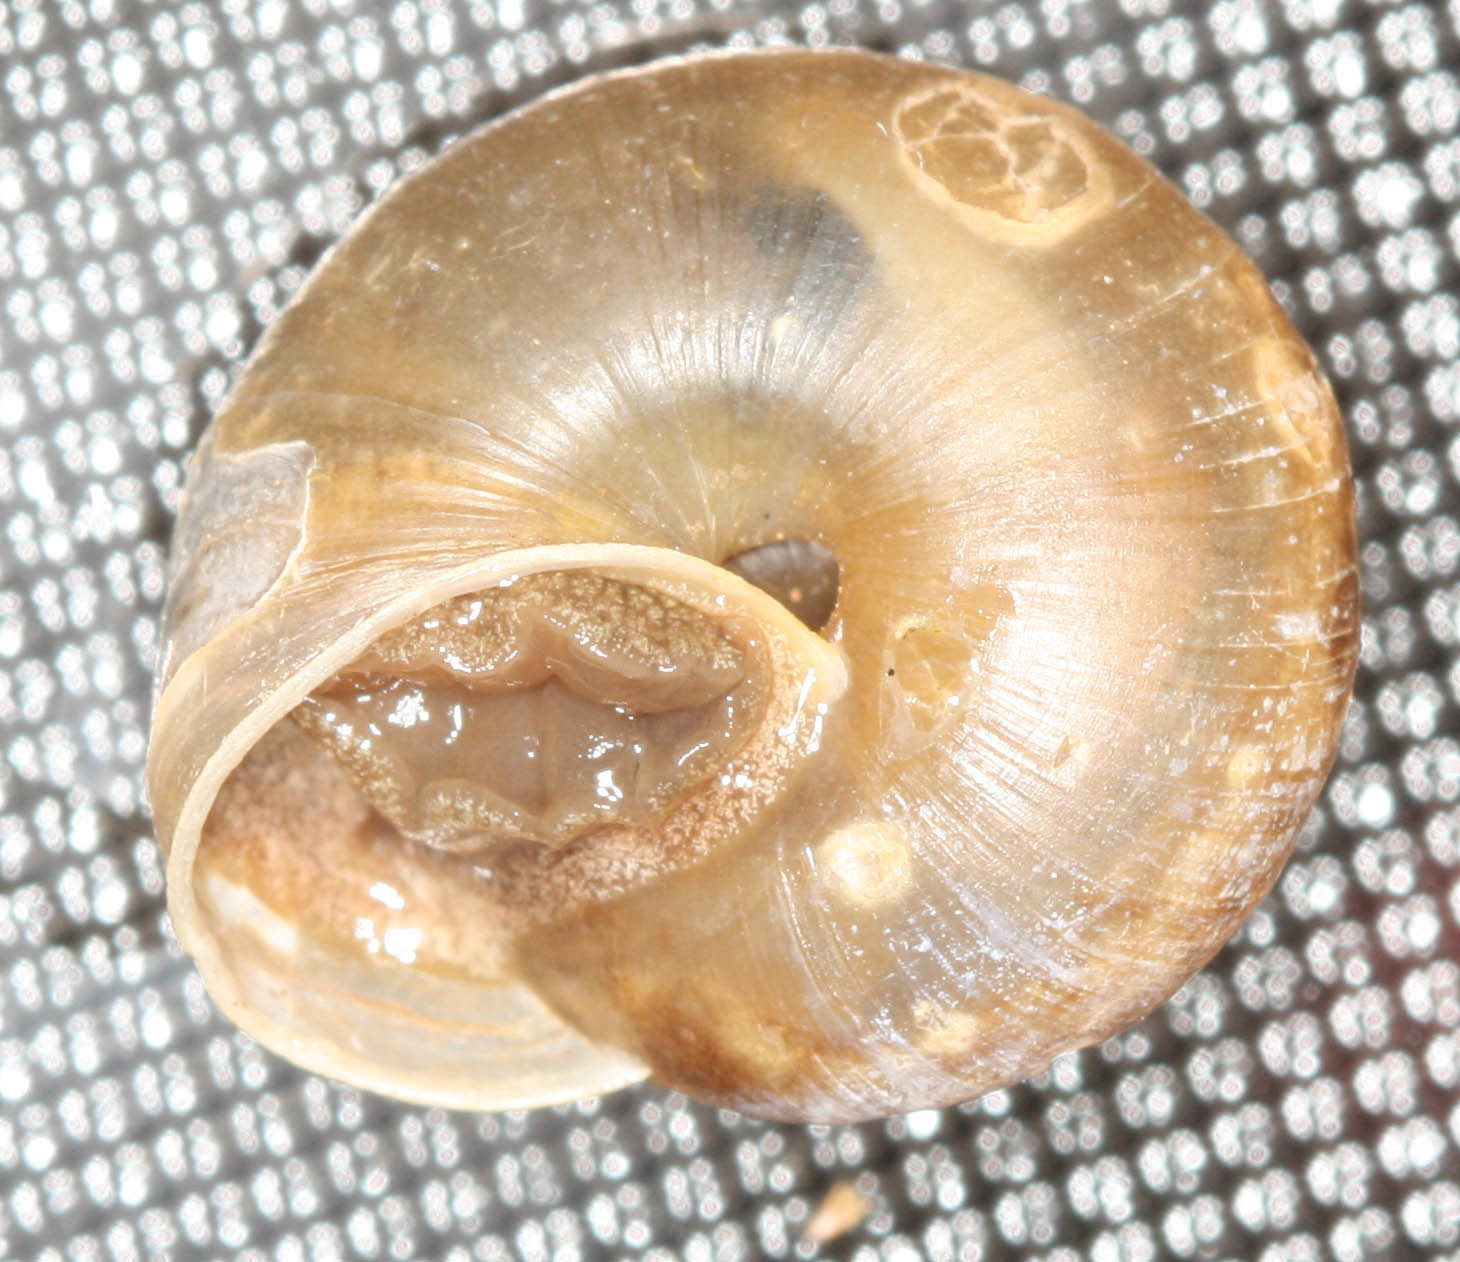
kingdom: Animalia
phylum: Mollusca
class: Gastropoda
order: Stylommatophora
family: Camaenidae
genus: Bradybaena
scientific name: Bradybaena similaris
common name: Asian trampsnail
